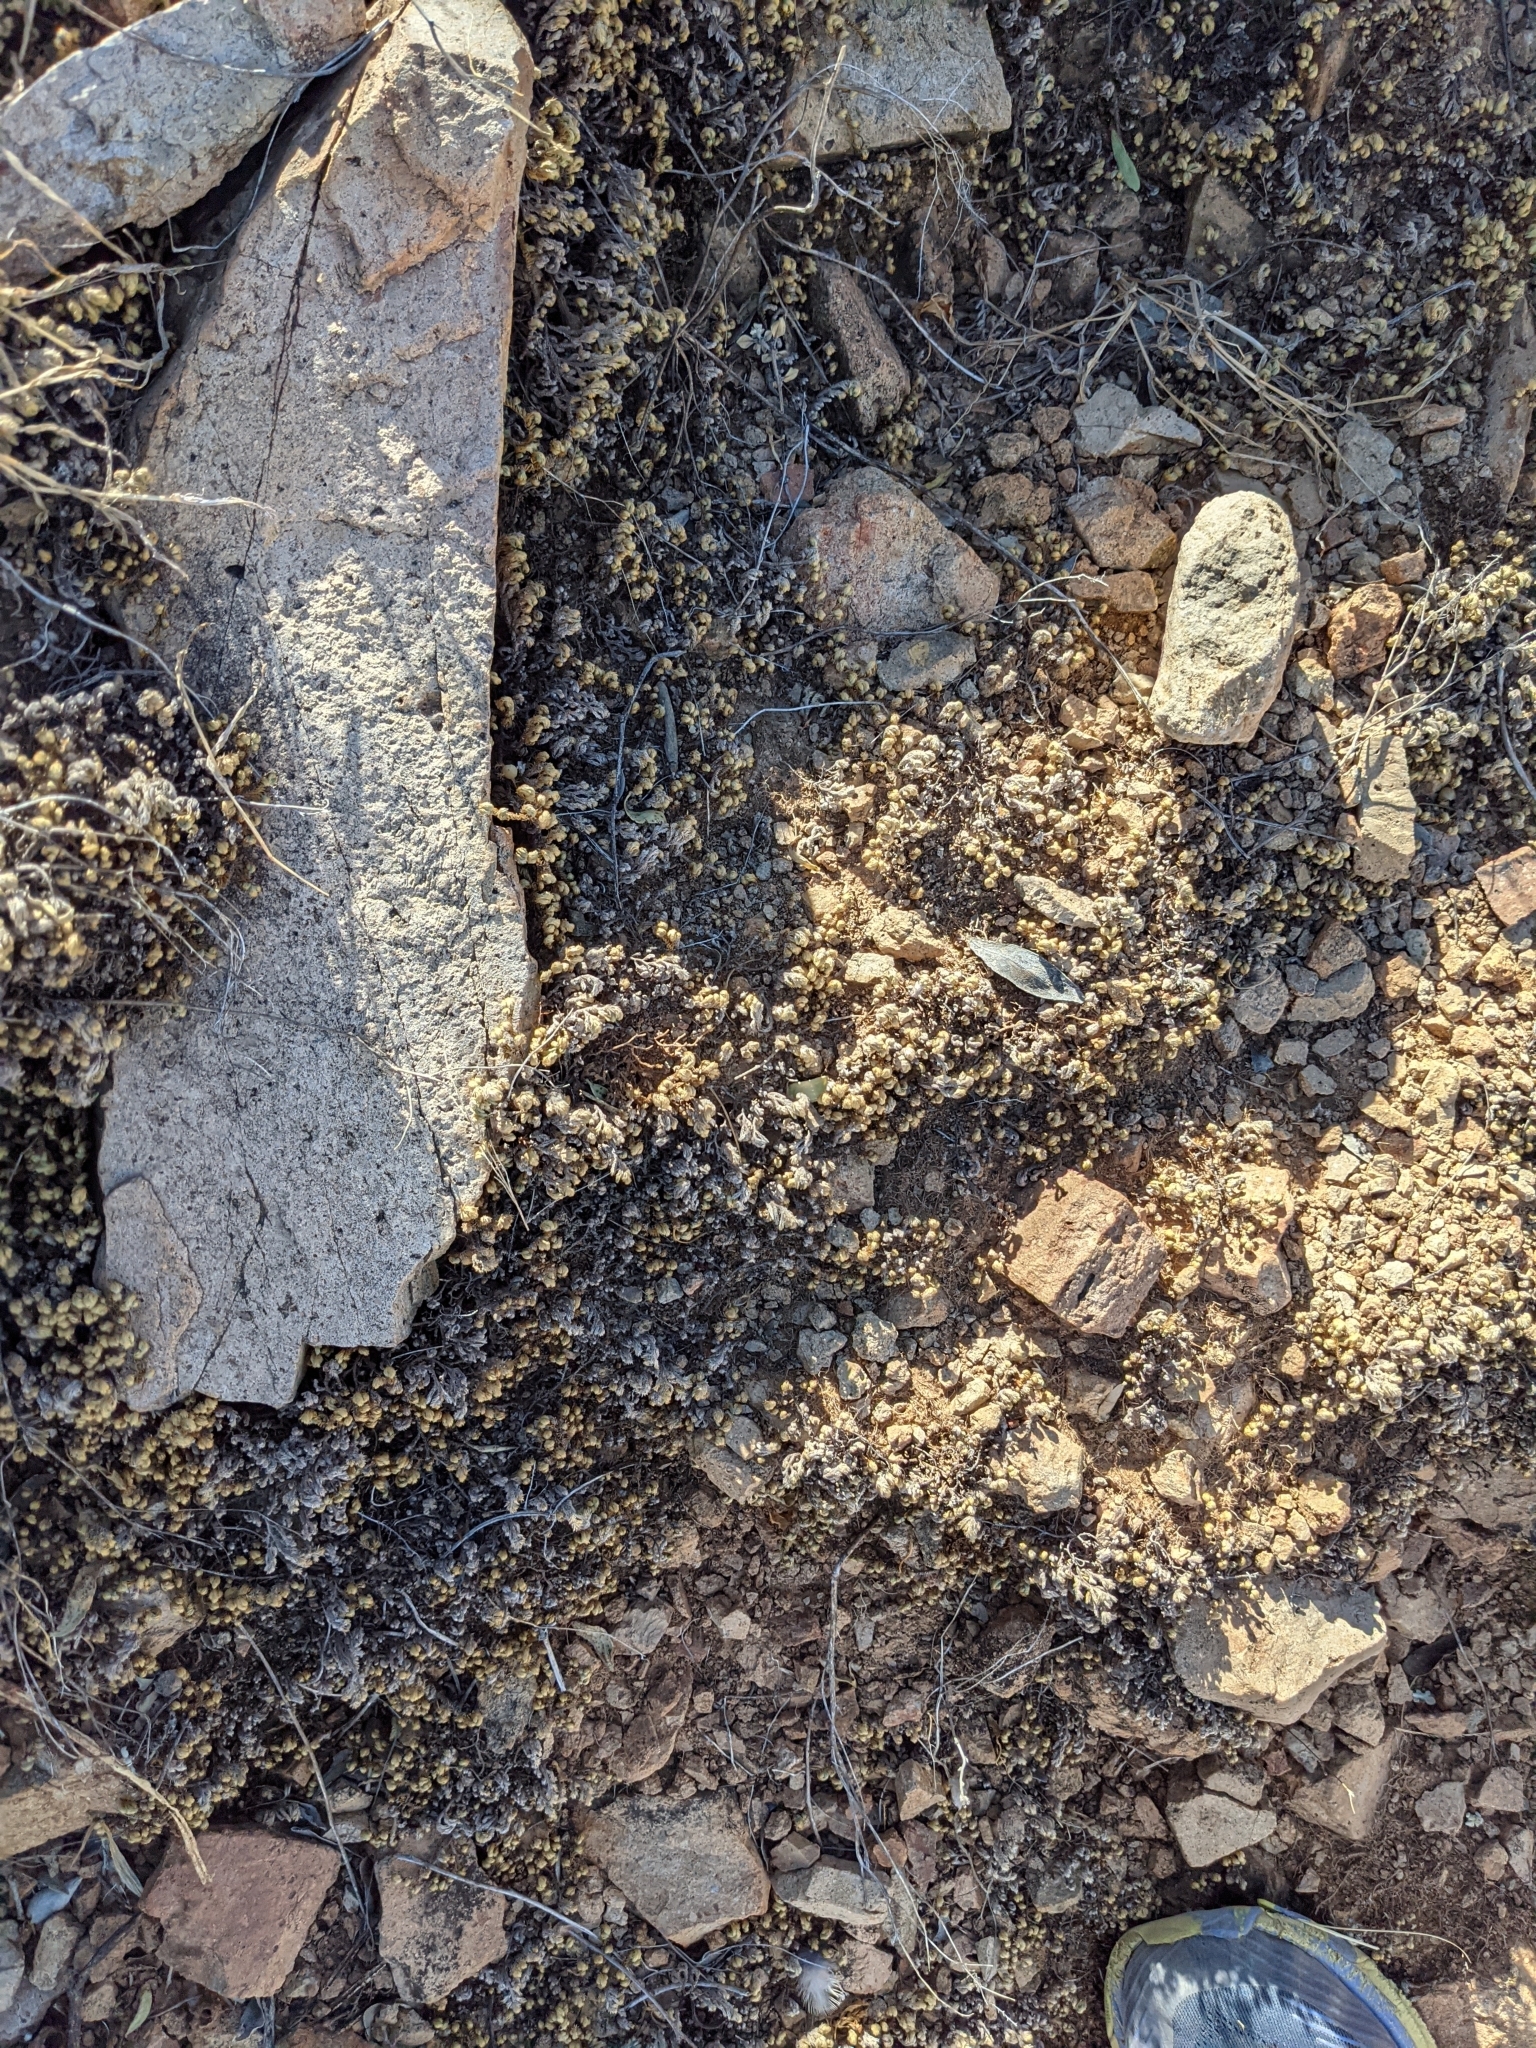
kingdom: Plantae
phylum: Tracheophyta
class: Lycopodiopsida
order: Selaginellales
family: Selaginellaceae
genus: Selaginella
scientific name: Selaginella arizonica
